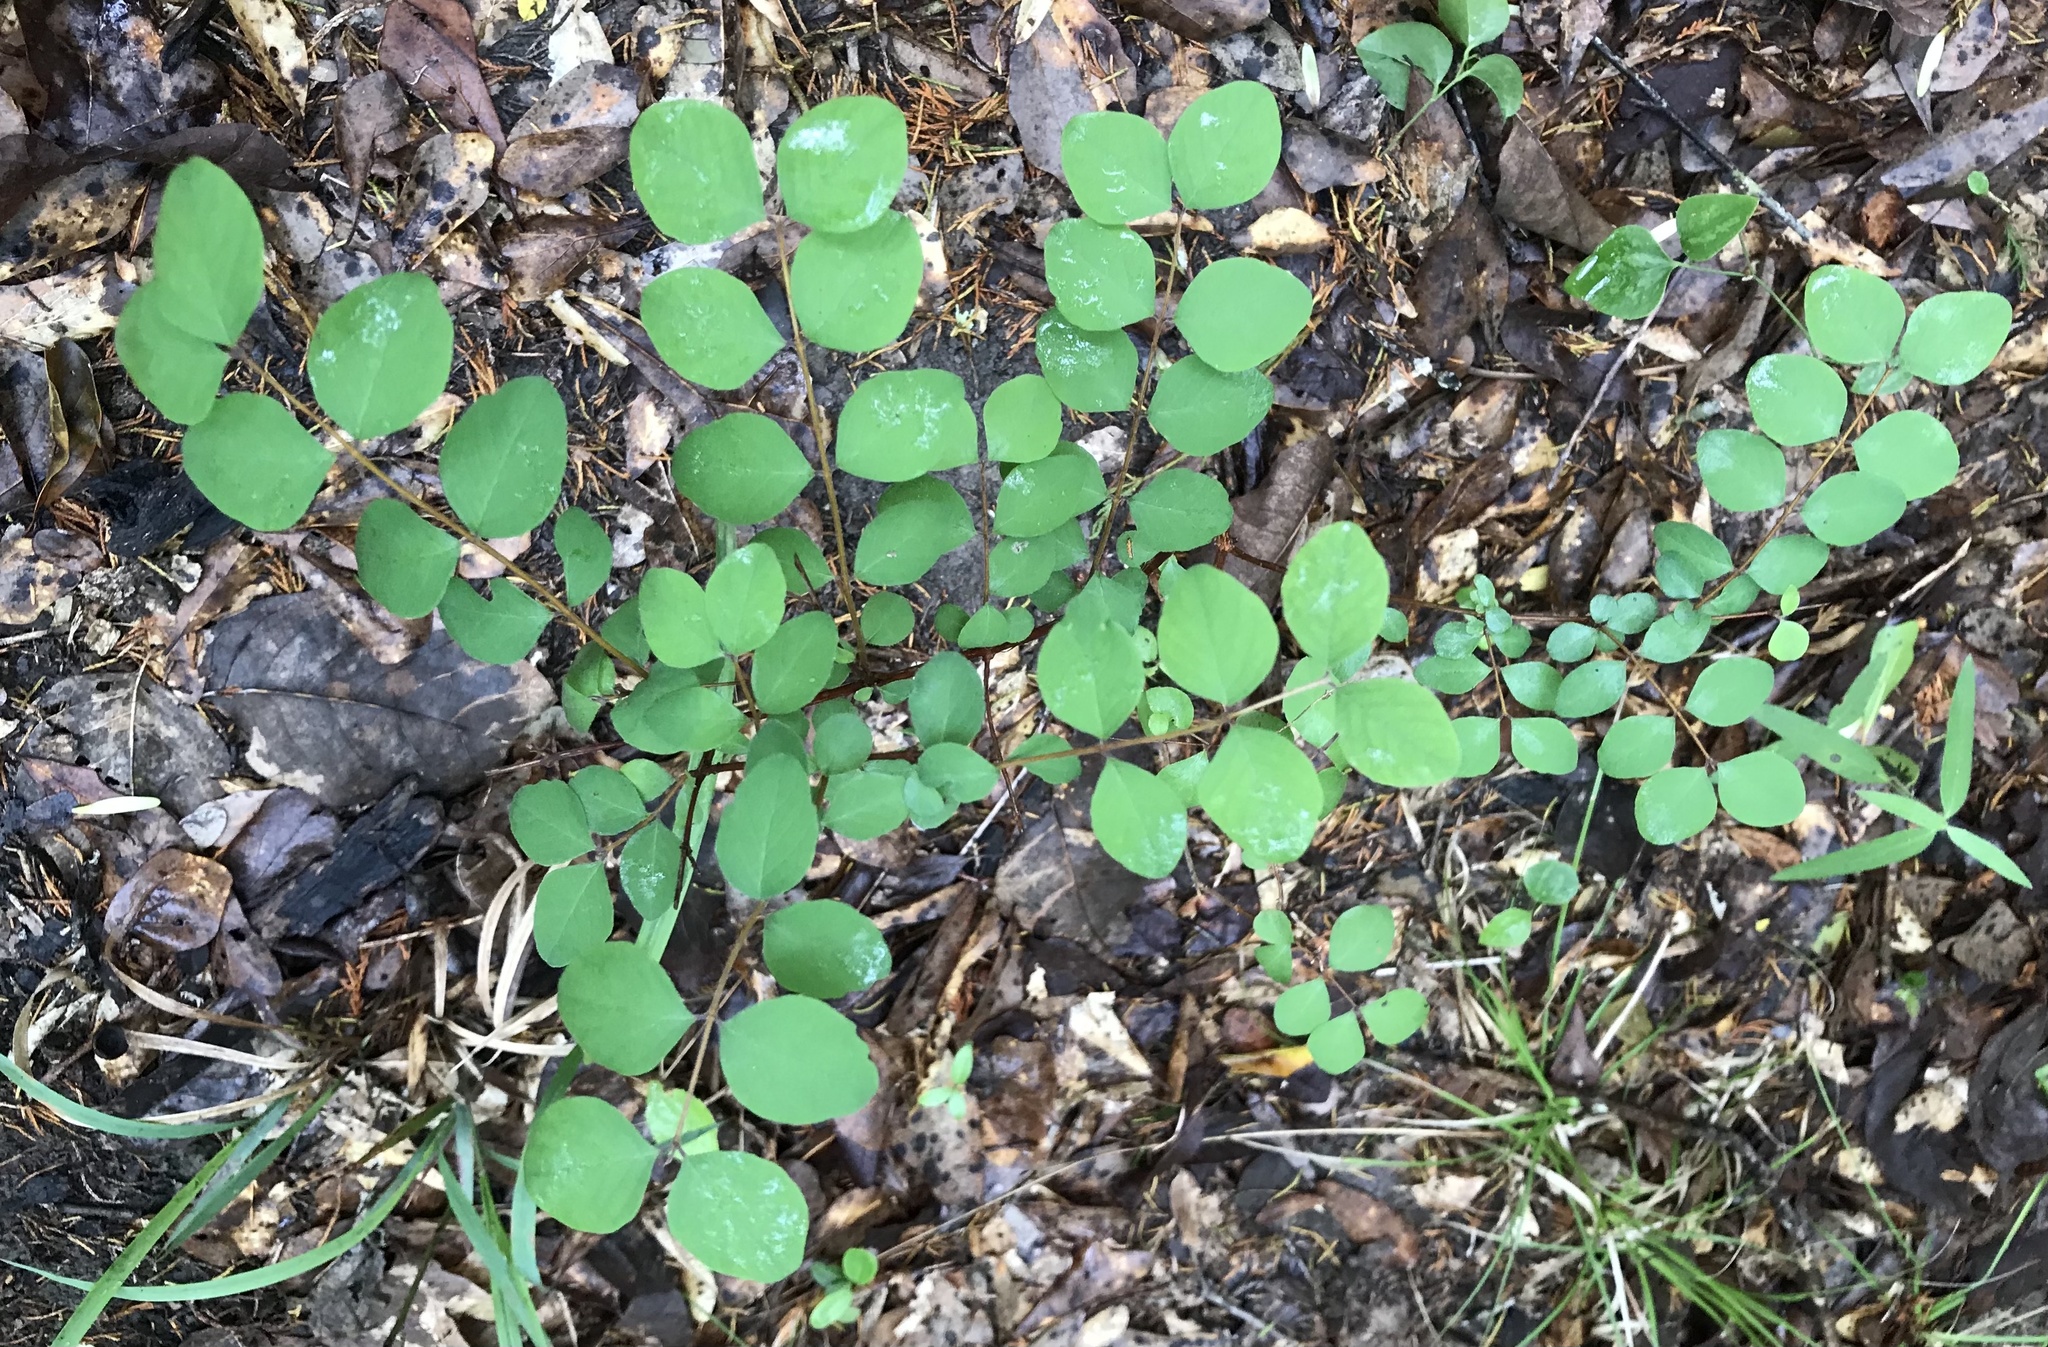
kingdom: Plantae
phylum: Tracheophyta
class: Magnoliopsida
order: Dipsacales
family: Caprifoliaceae
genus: Symphoricarpos
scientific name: Symphoricarpos orbiculatus
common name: Coralberry
